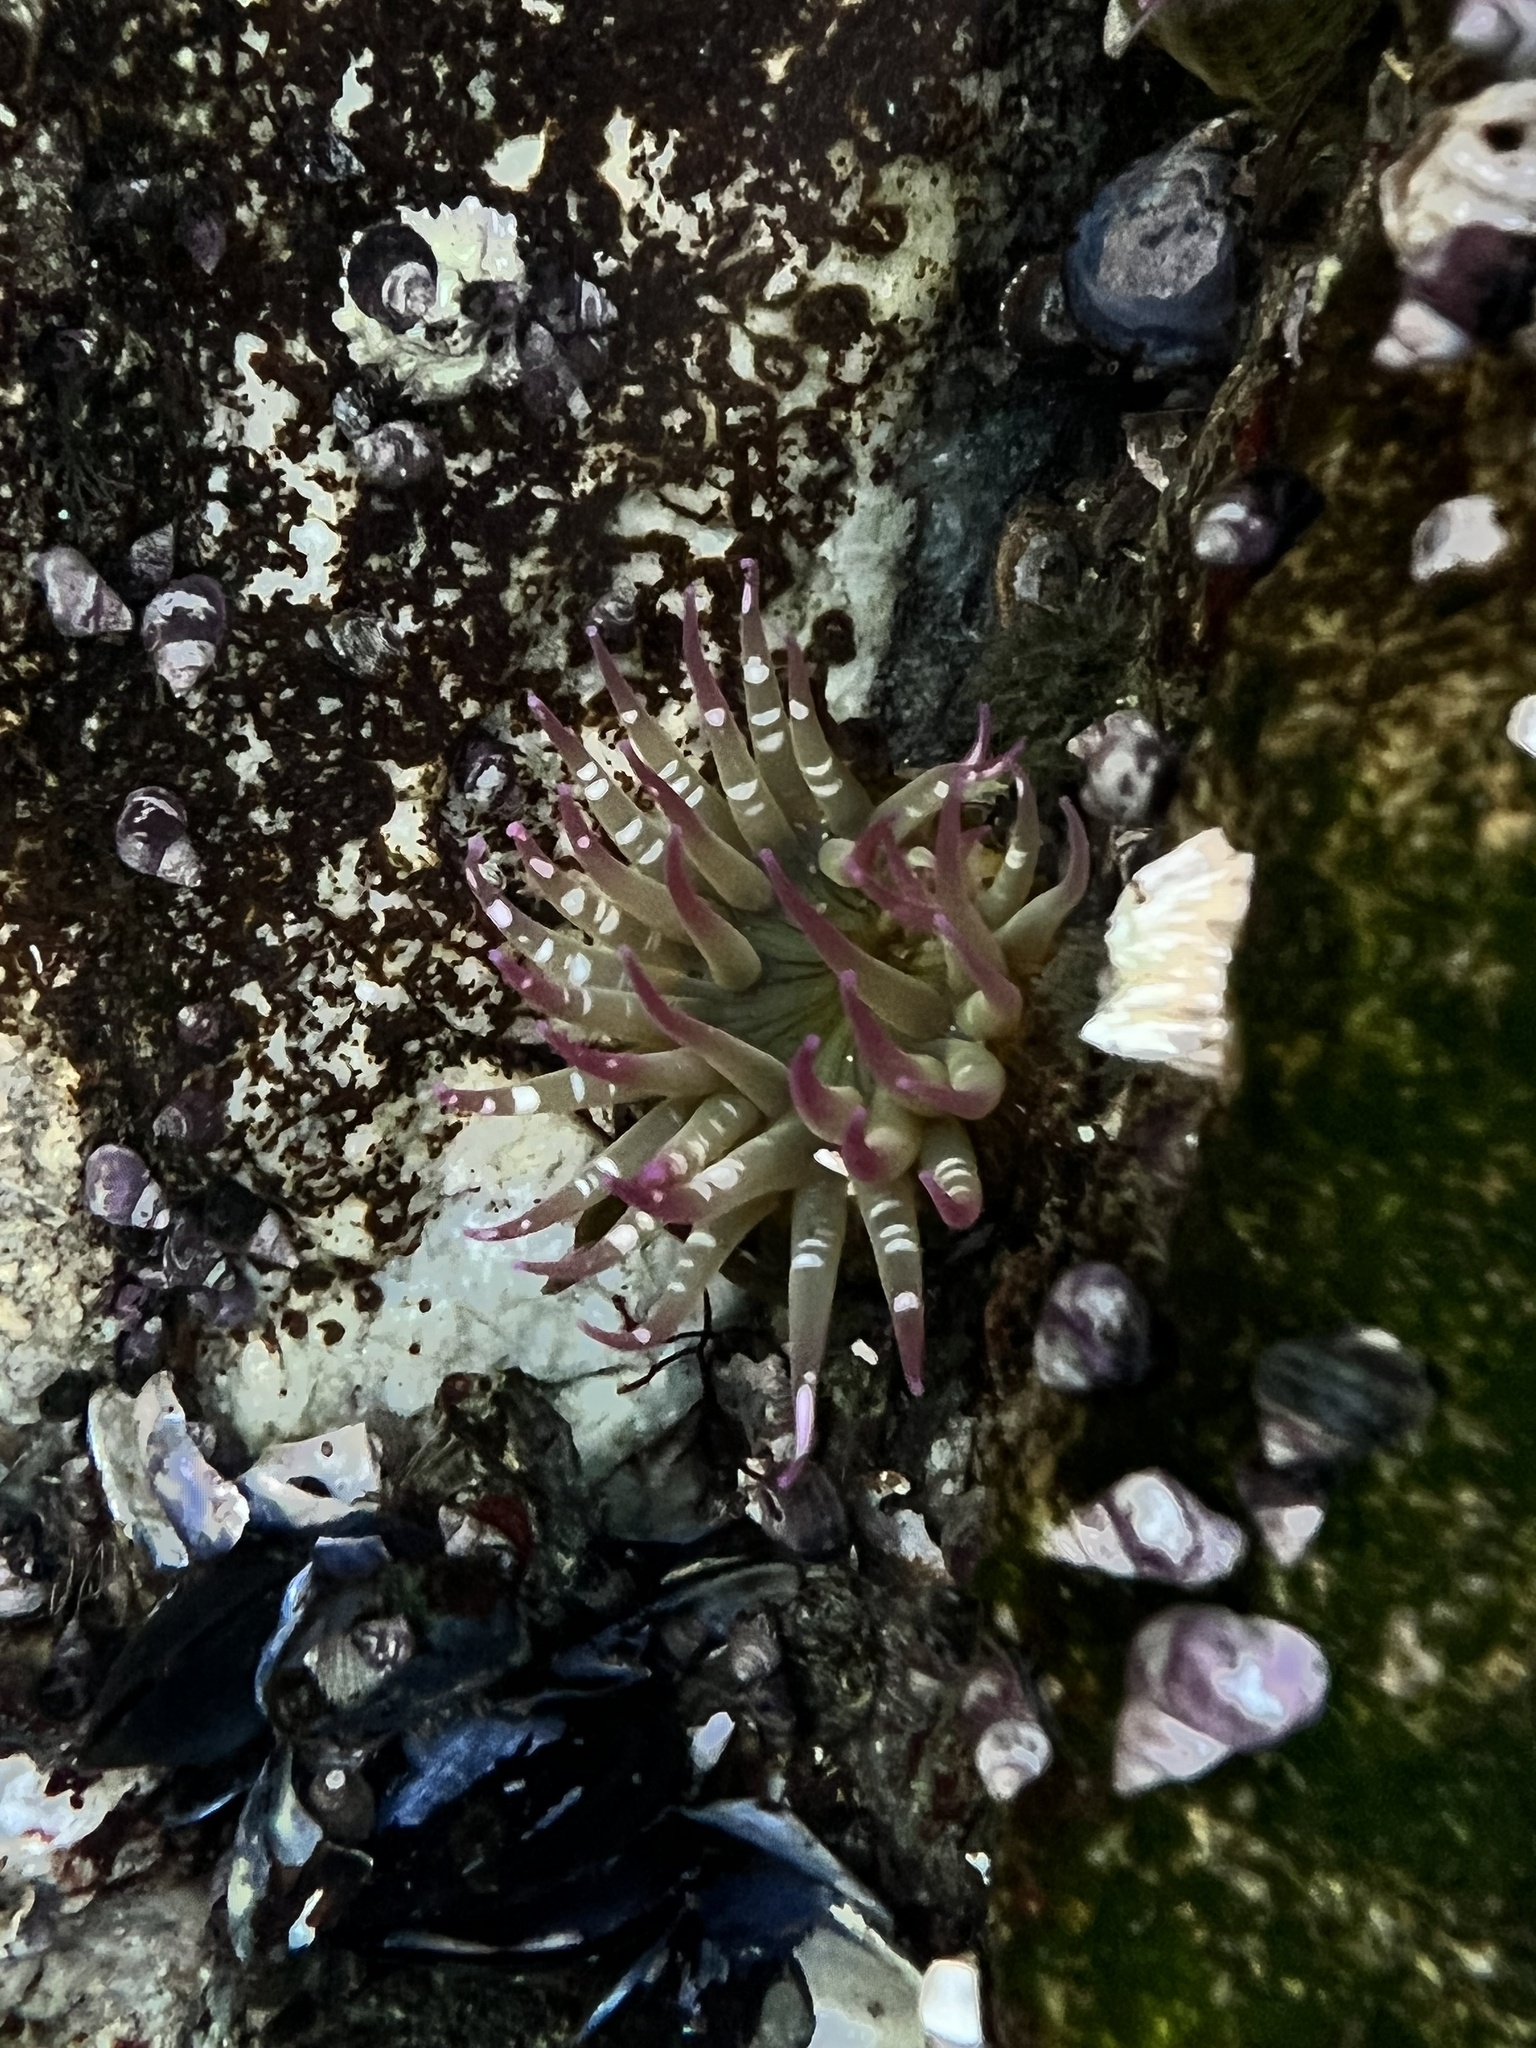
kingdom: Animalia
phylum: Cnidaria
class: Anthozoa
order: Actiniaria
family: Actiniidae
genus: Anthopleura
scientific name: Anthopleura elegantissima
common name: Clonal anemone
